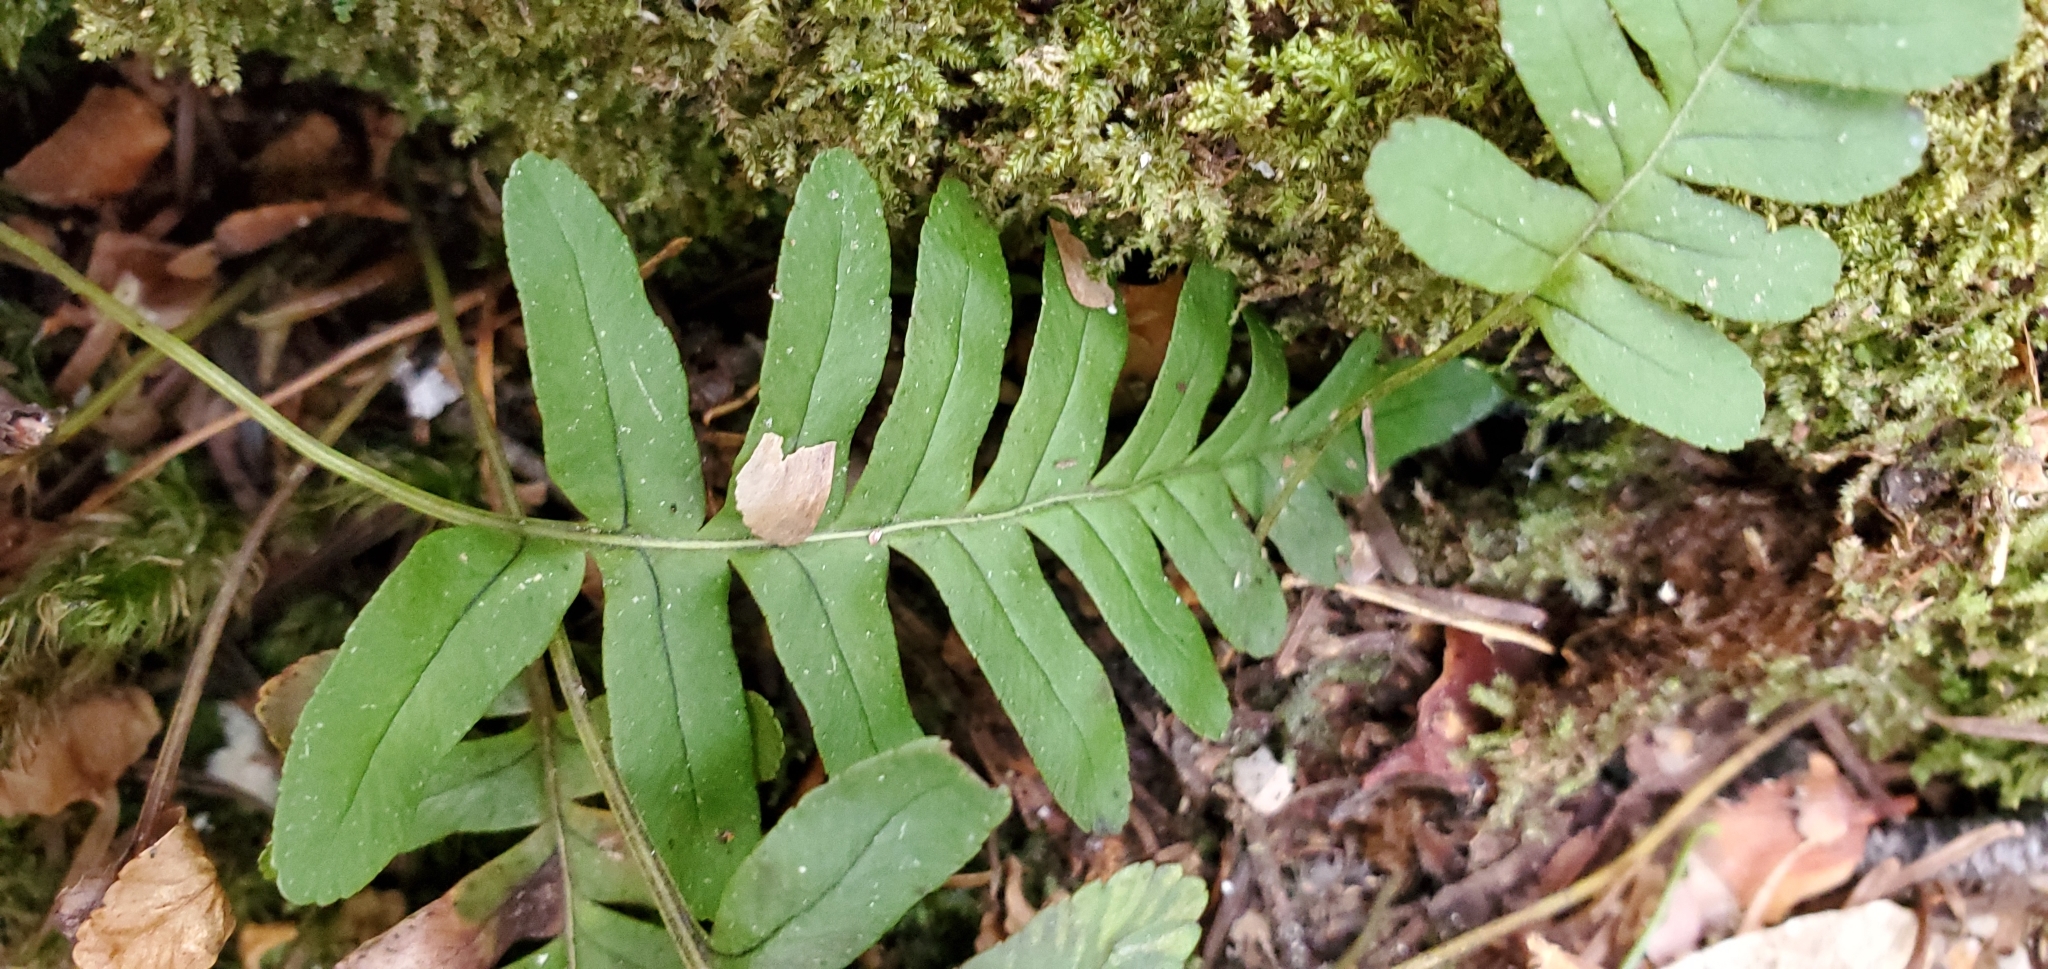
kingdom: Plantae
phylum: Tracheophyta
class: Polypodiopsida
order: Polypodiales
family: Polypodiaceae
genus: Polypodium
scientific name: Polypodium virginianum
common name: American wall fern
